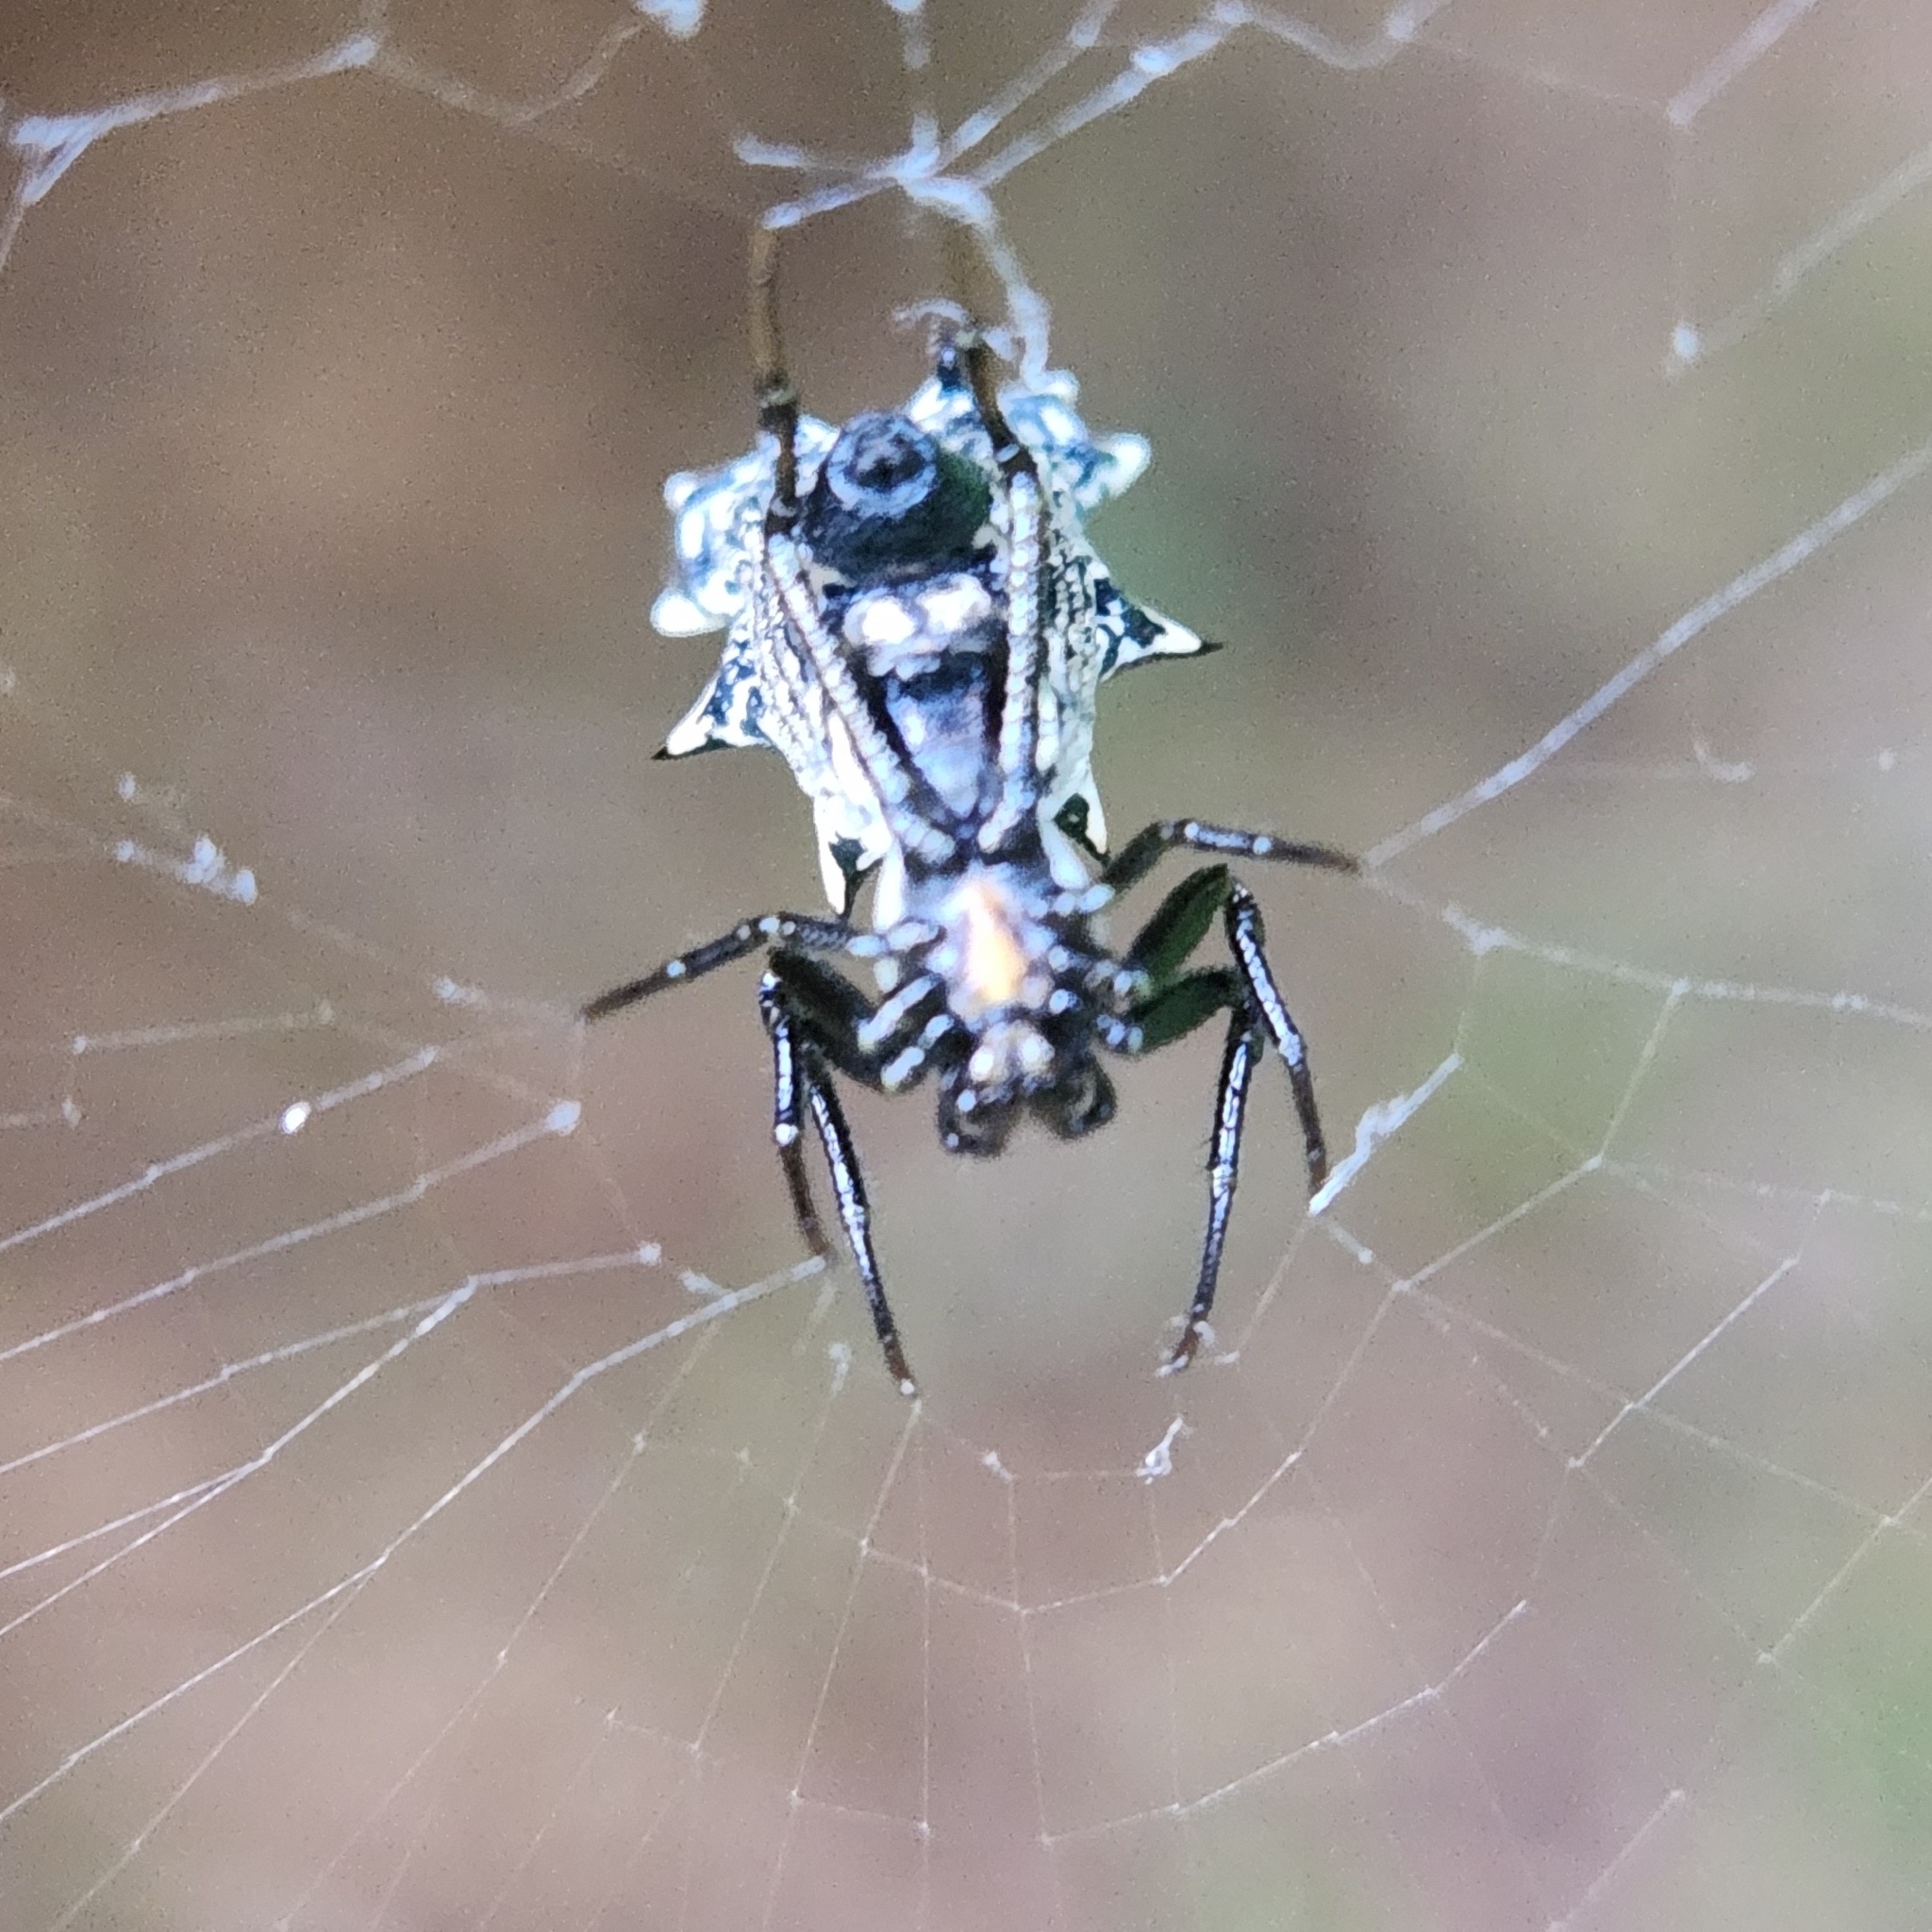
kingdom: Animalia
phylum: Arthropoda
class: Arachnida
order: Araneae
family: Araneidae
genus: Micrathena
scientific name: Micrathena gracilis
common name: Orb weavers
